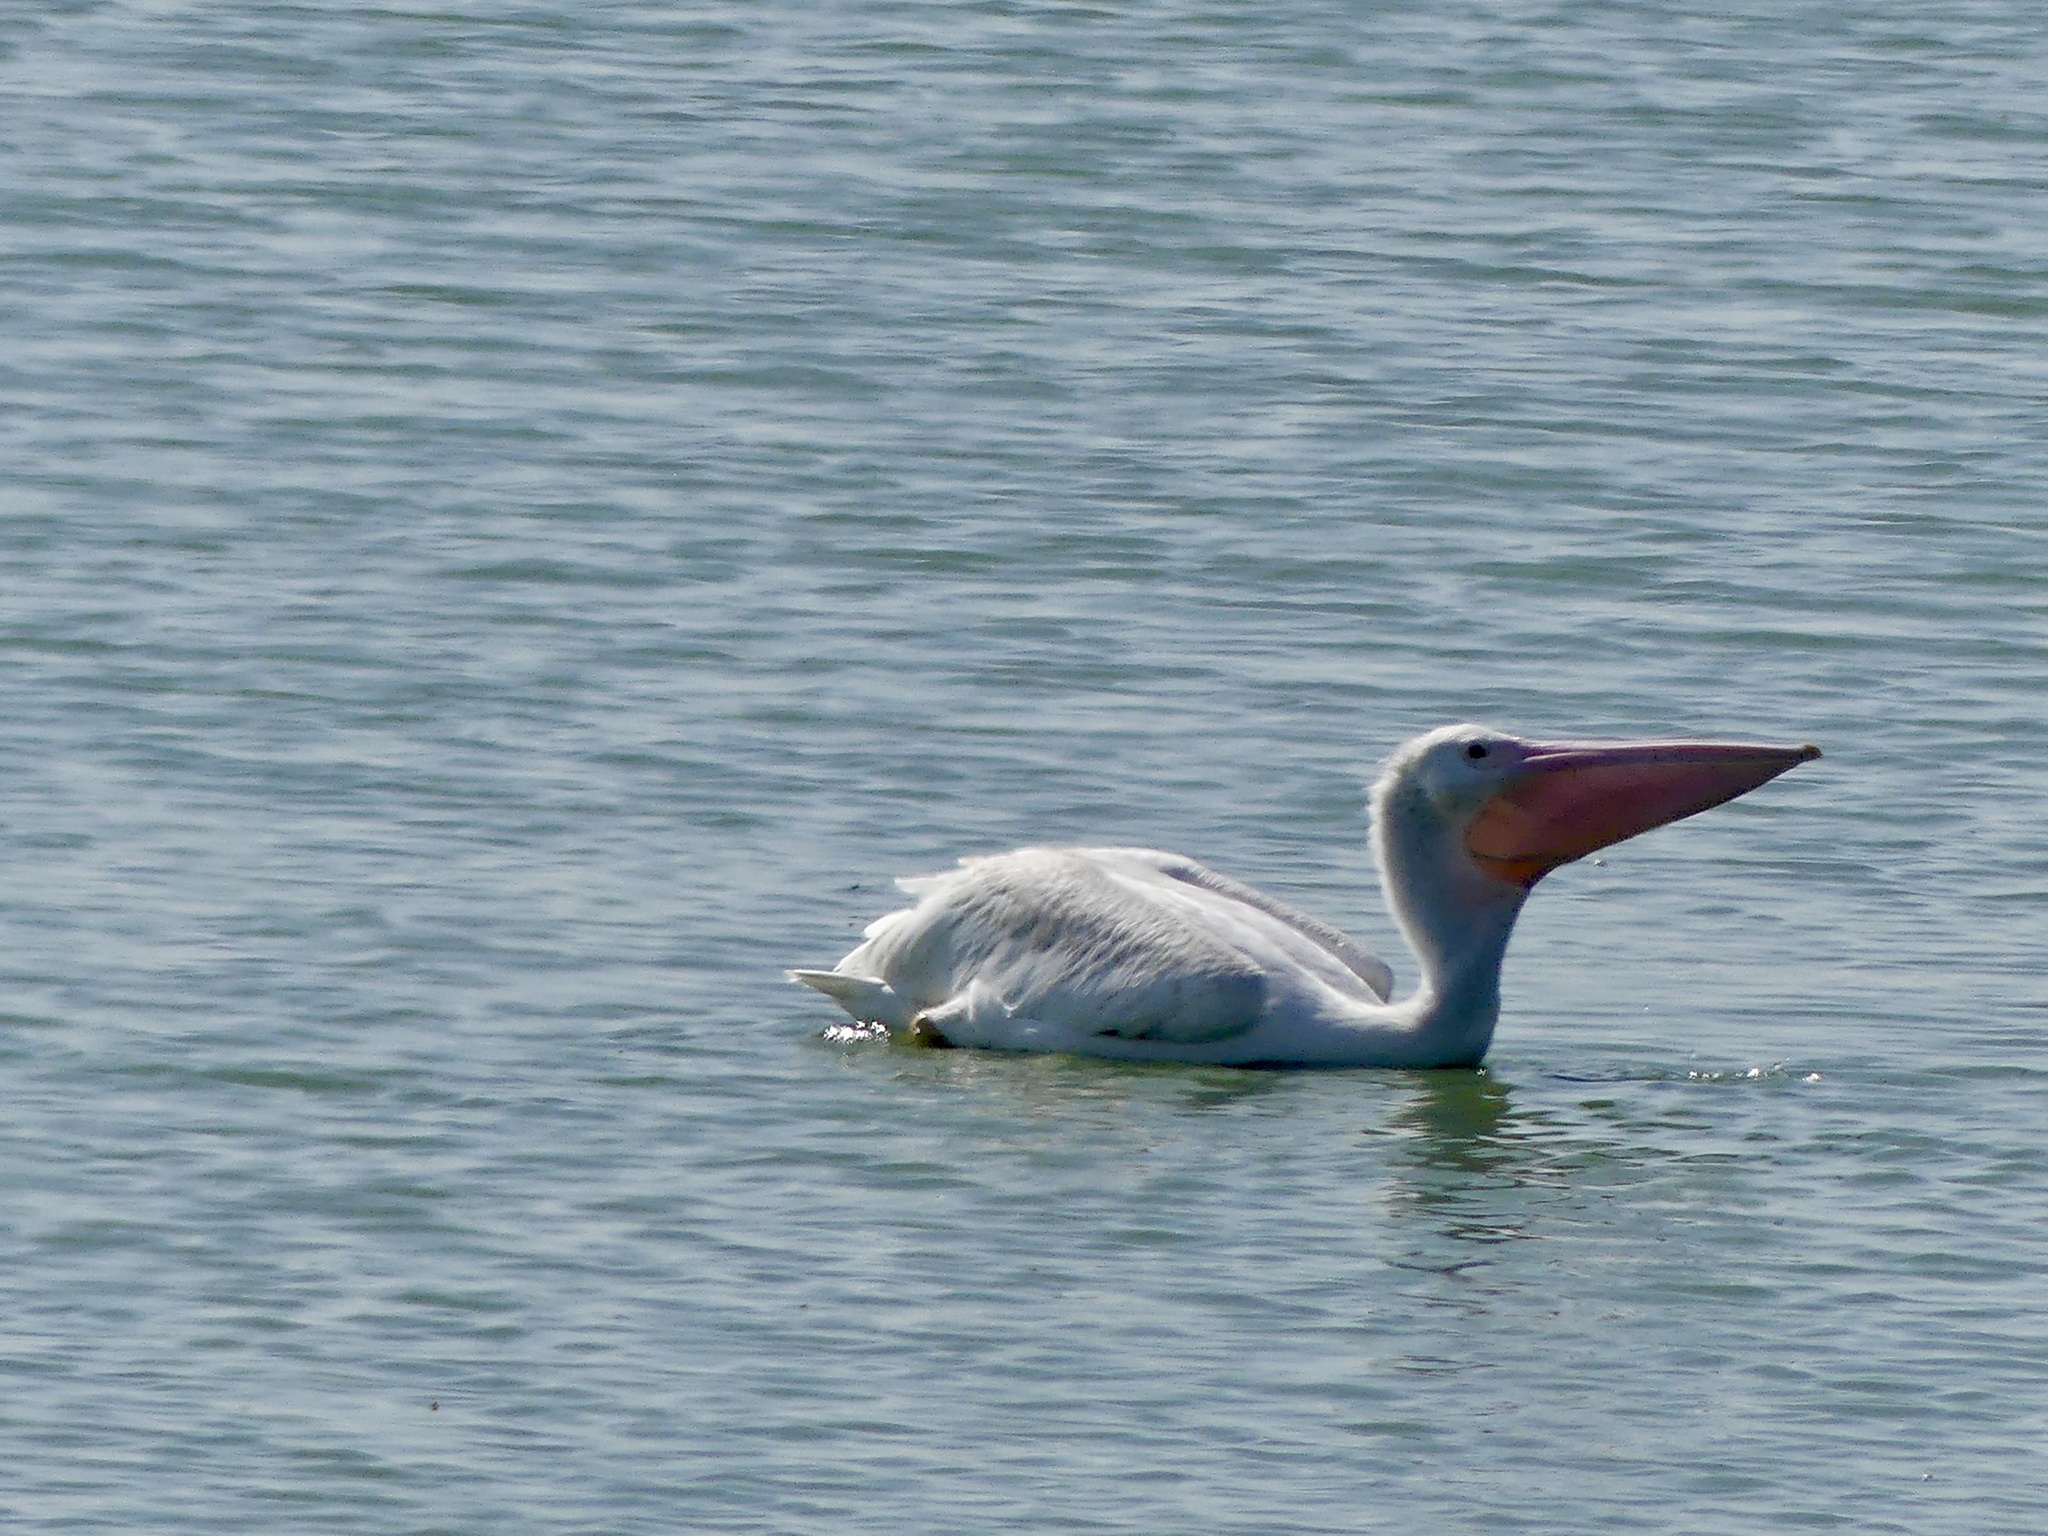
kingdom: Animalia
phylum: Chordata
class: Aves
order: Pelecaniformes
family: Pelecanidae
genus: Pelecanus
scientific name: Pelecanus erythrorhynchos
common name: American white pelican
